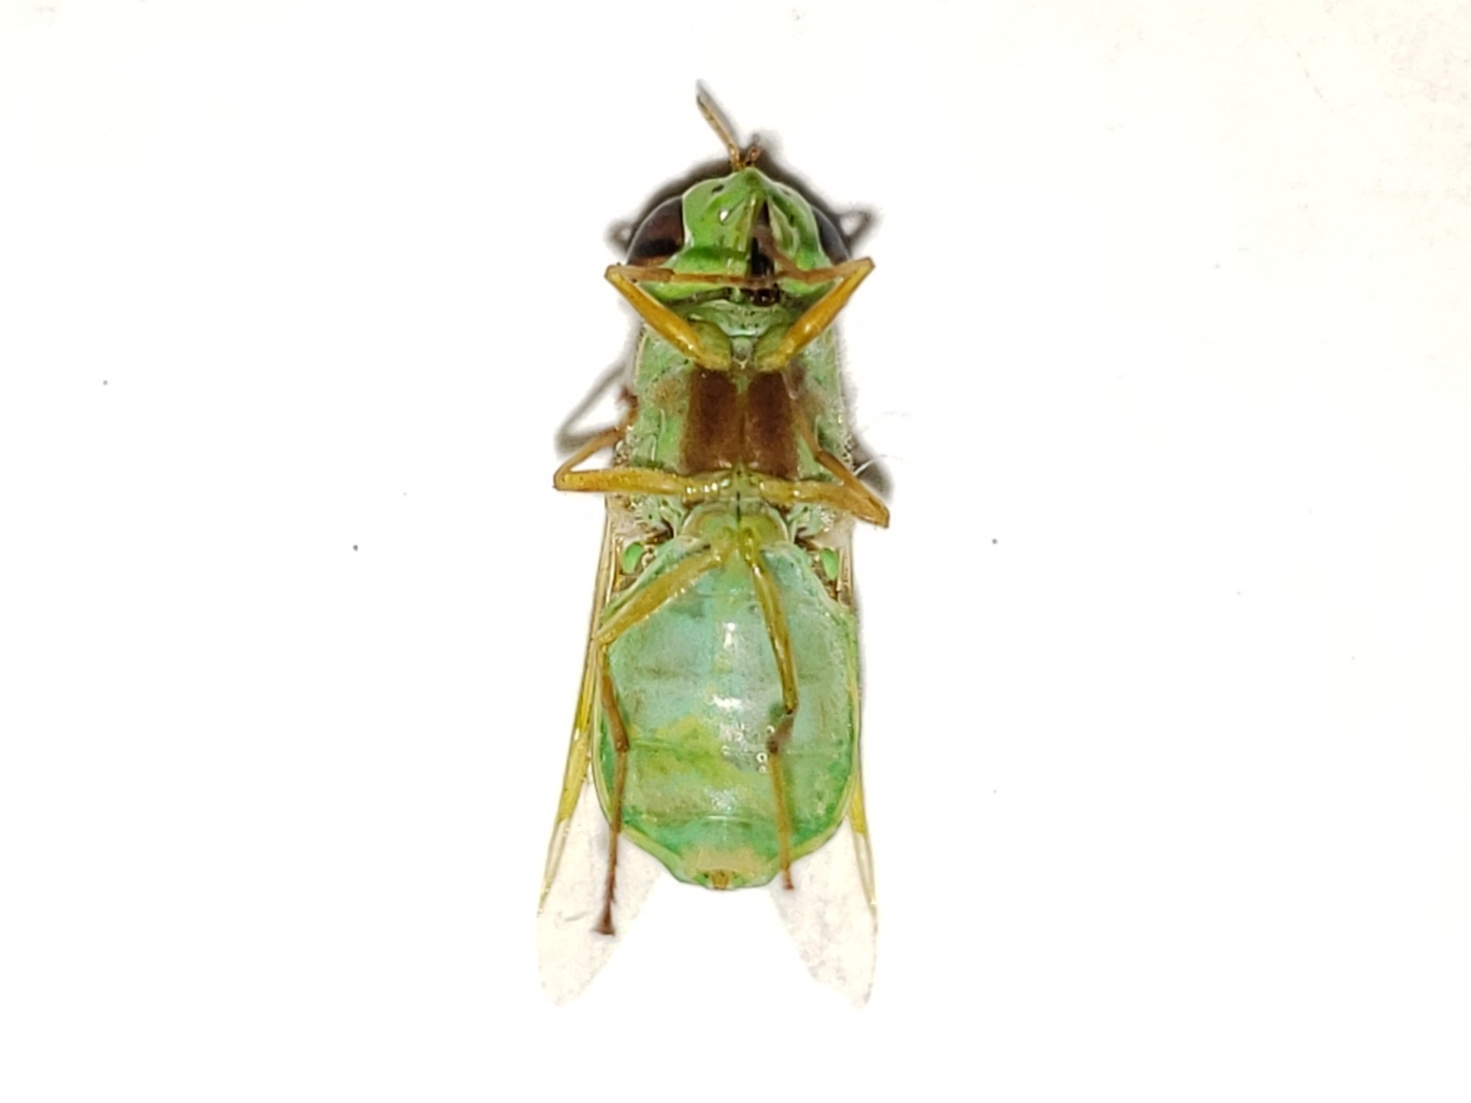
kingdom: Animalia
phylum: Arthropoda
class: Insecta
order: Diptera
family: Stratiomyidae
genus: Hedriodiscus
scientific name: Hedriodiscus trivittatus
